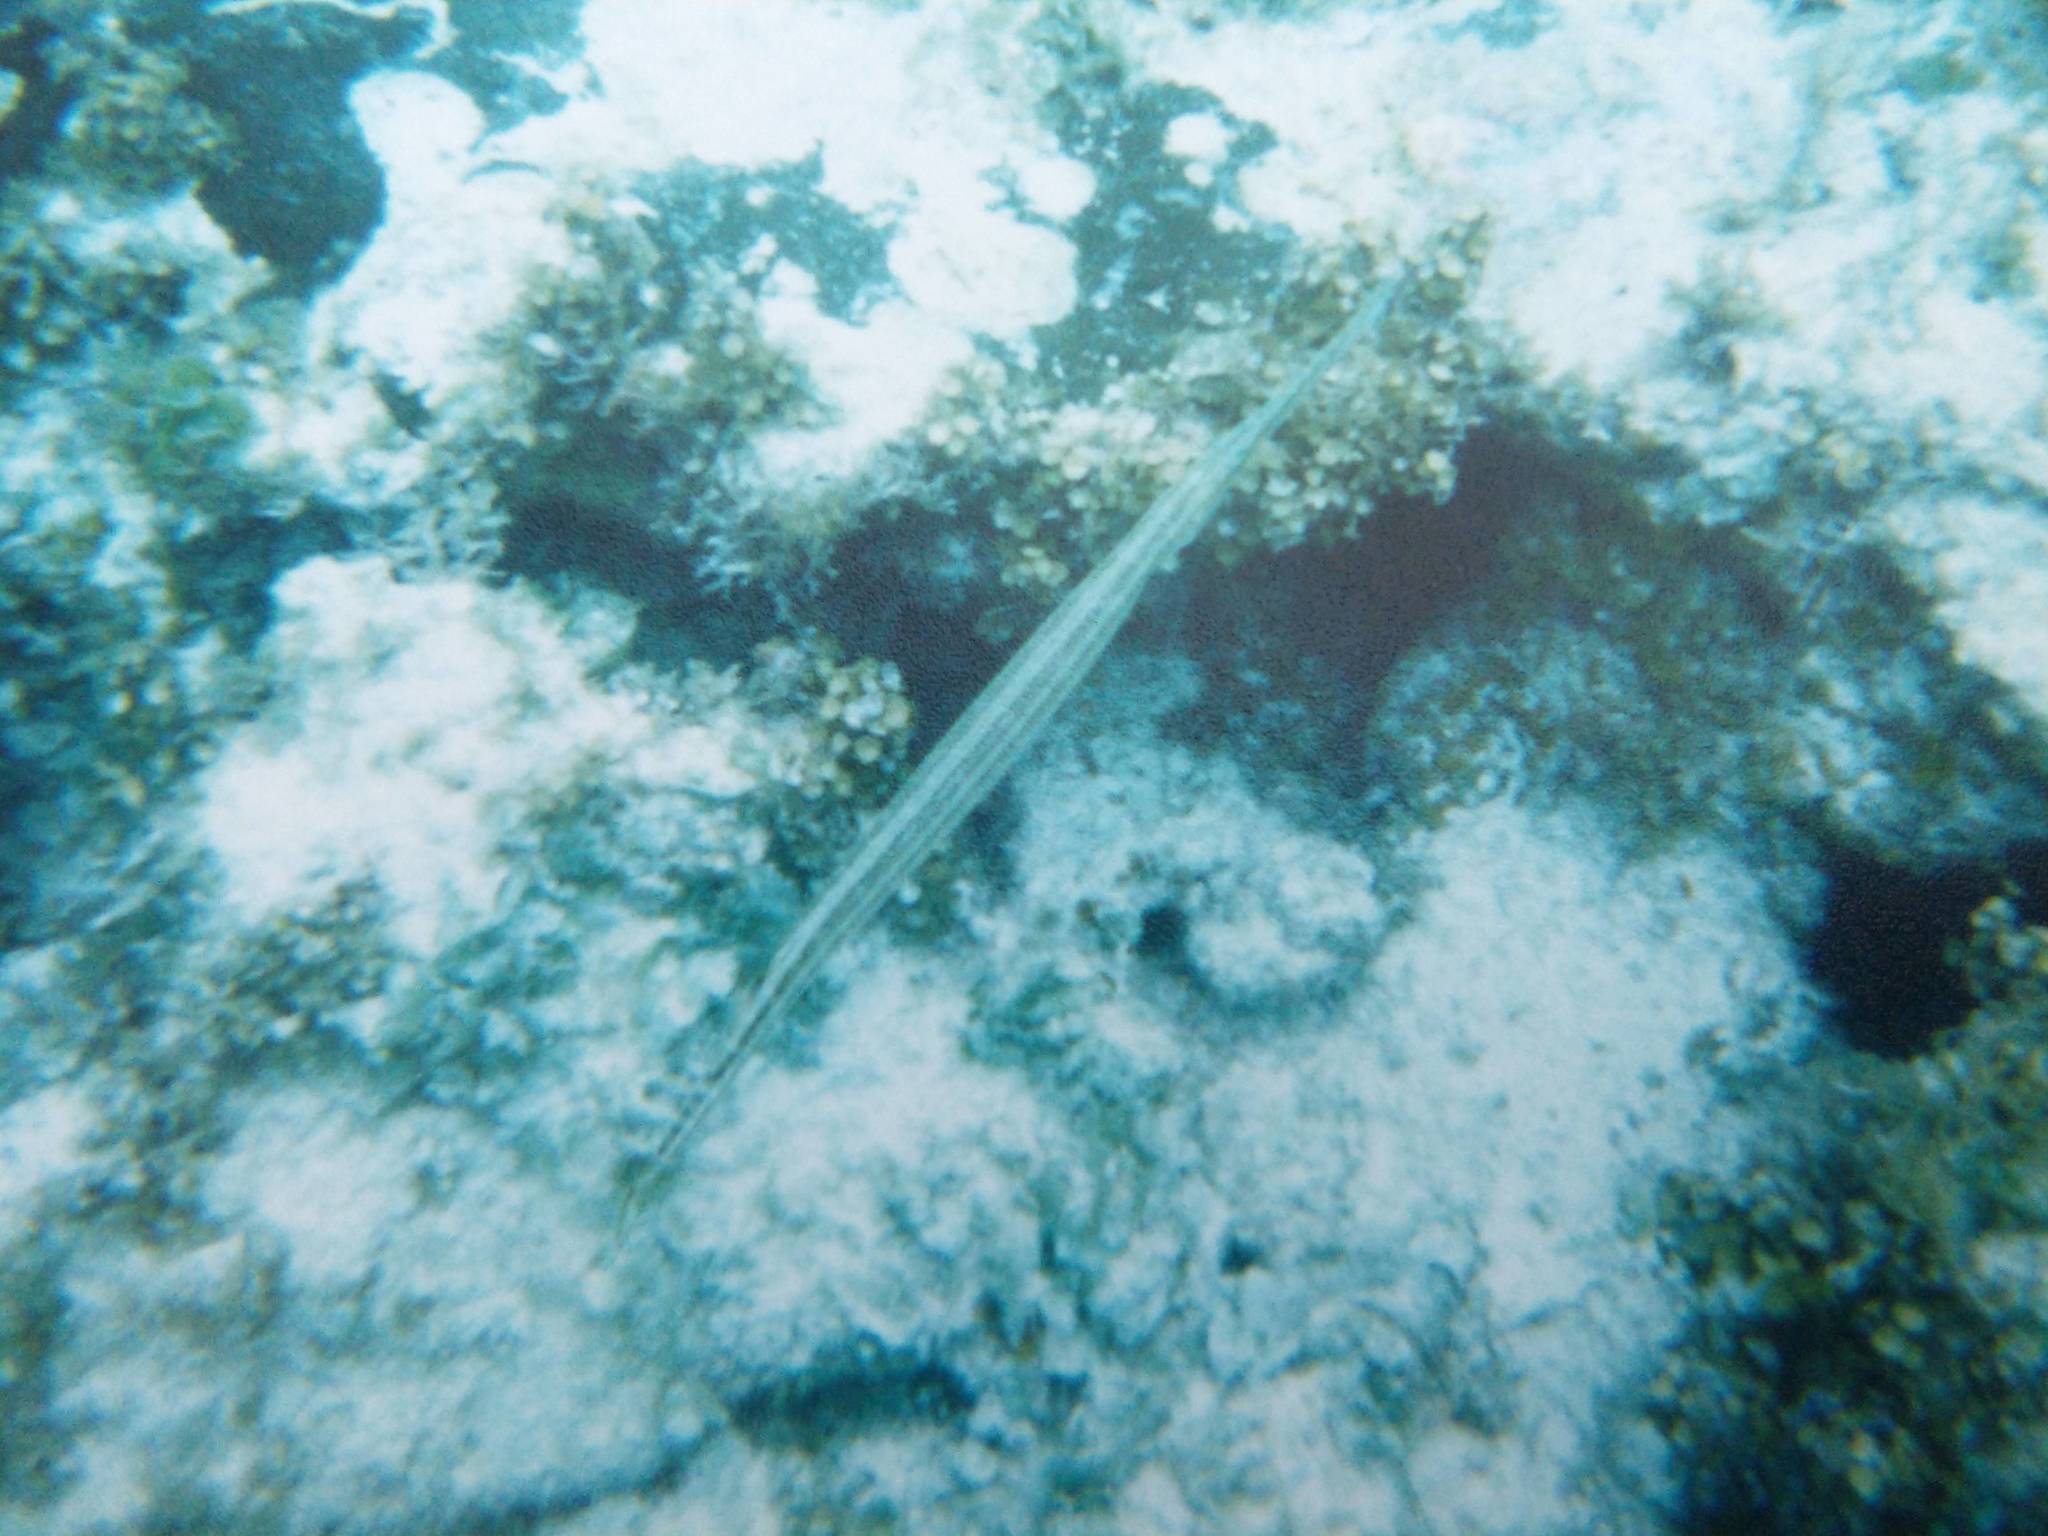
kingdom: Animalia
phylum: Chordata
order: Syngnathiformes
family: Aulostomidae
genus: Aulostomus
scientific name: Aulostomus maculatus
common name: West atlantic trumpetfish
